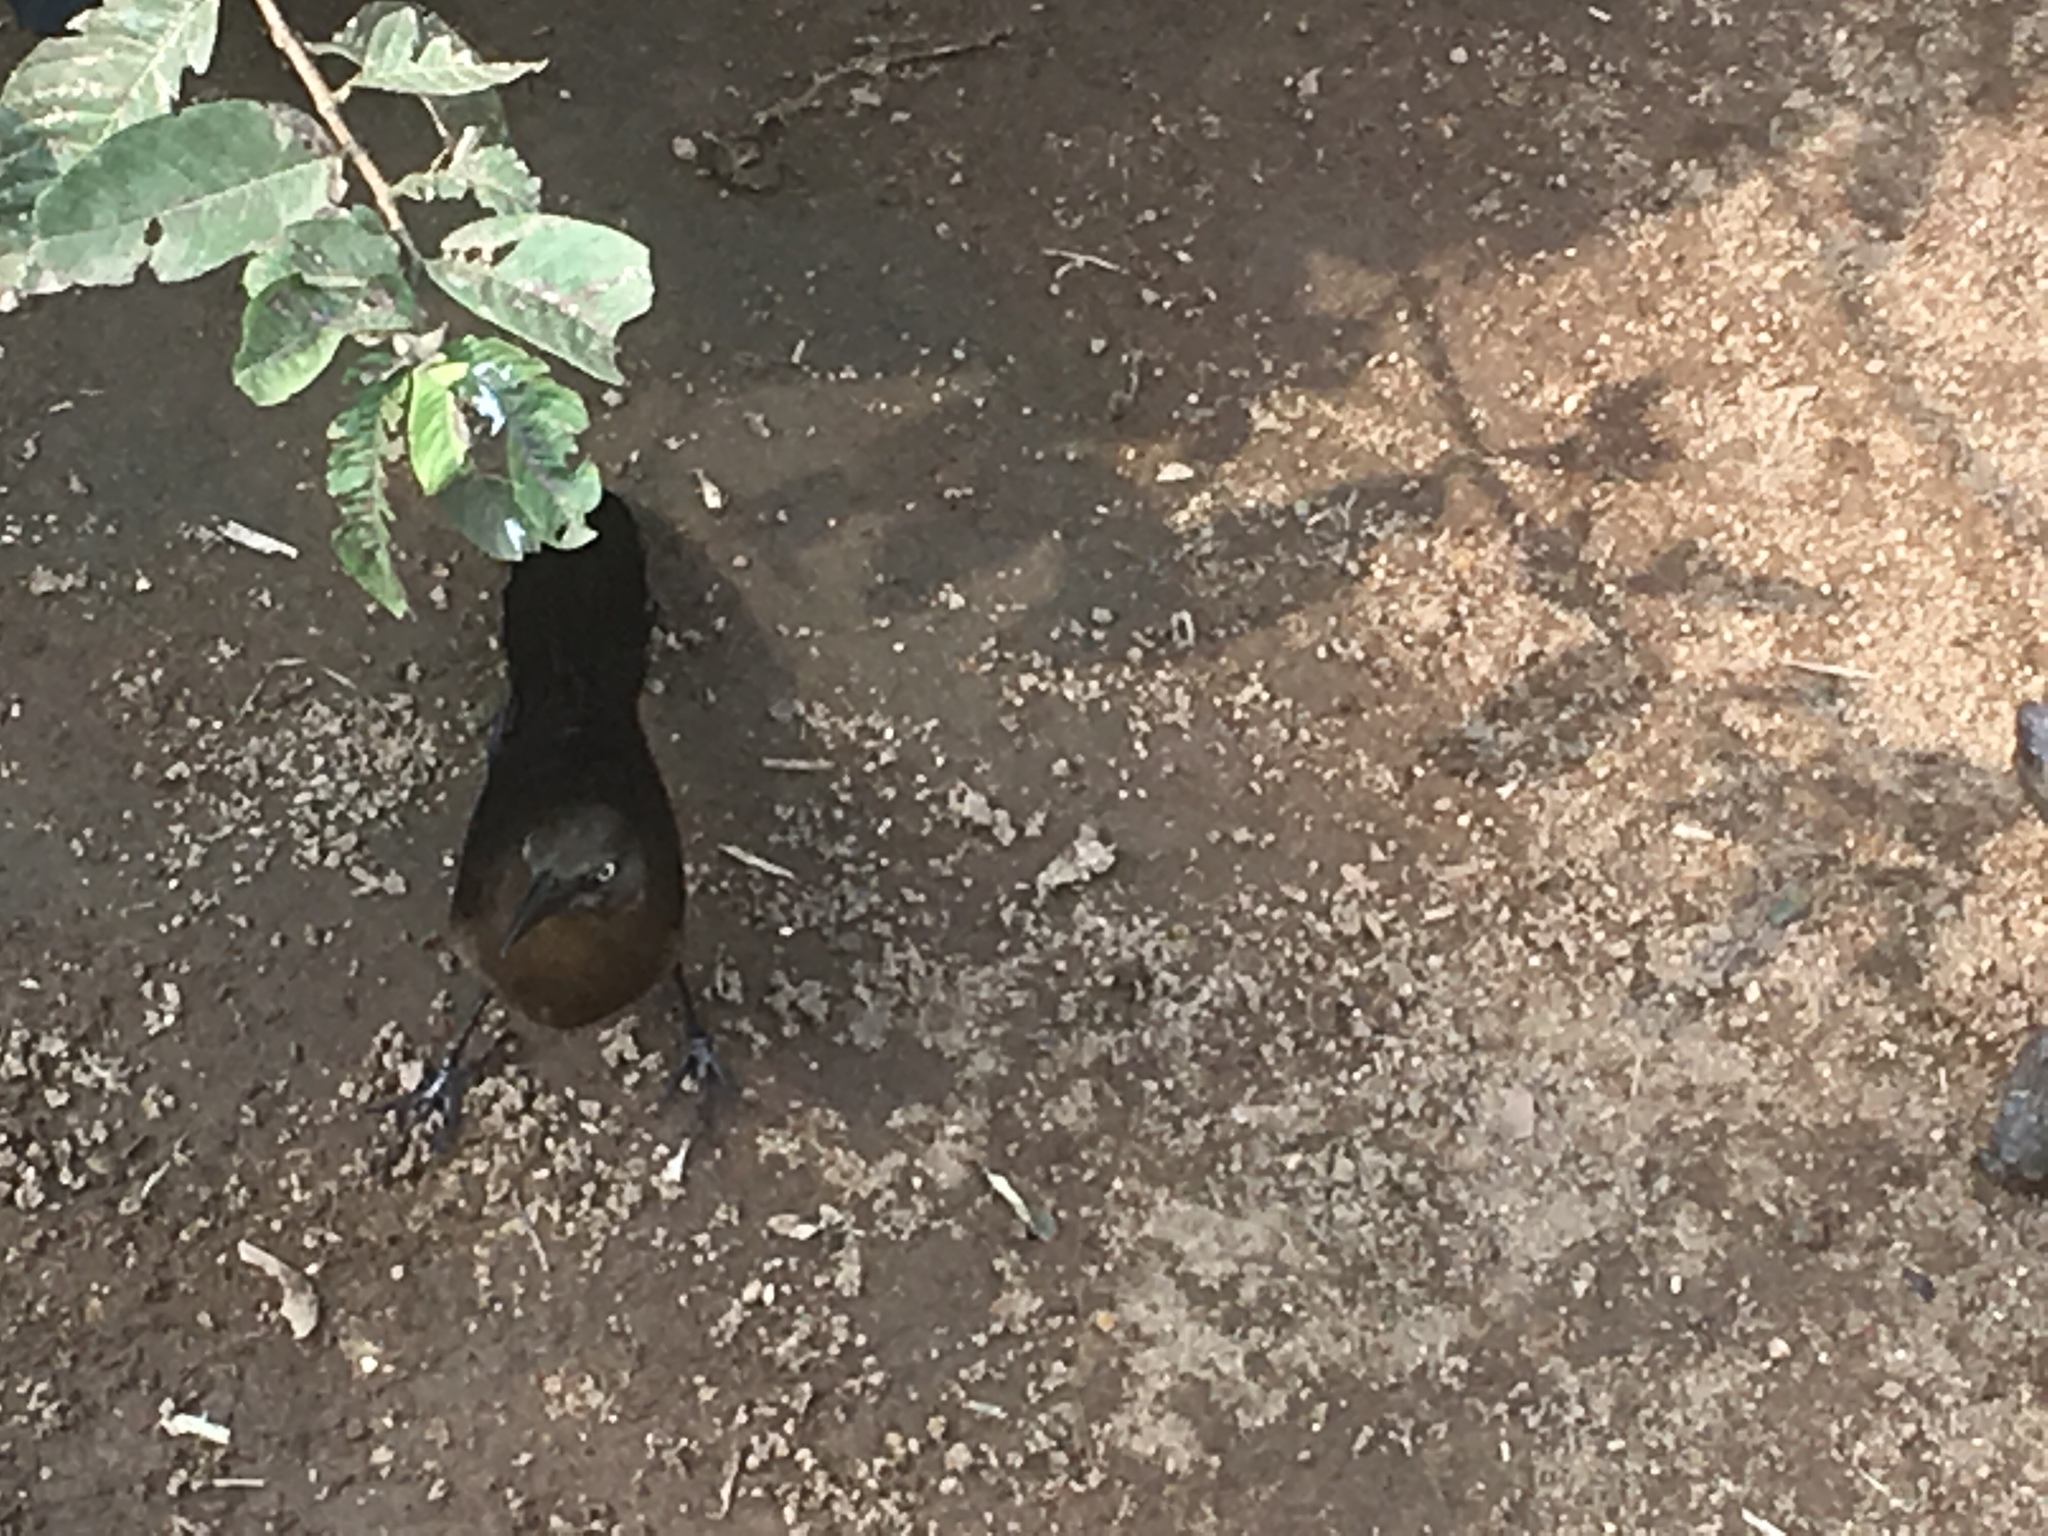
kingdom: Animalia
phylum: Chordata
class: Aves
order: Passeriformes
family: Icteridae
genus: Quiscalus
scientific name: Quiscalus mexicanus
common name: Great-tailed grackle
